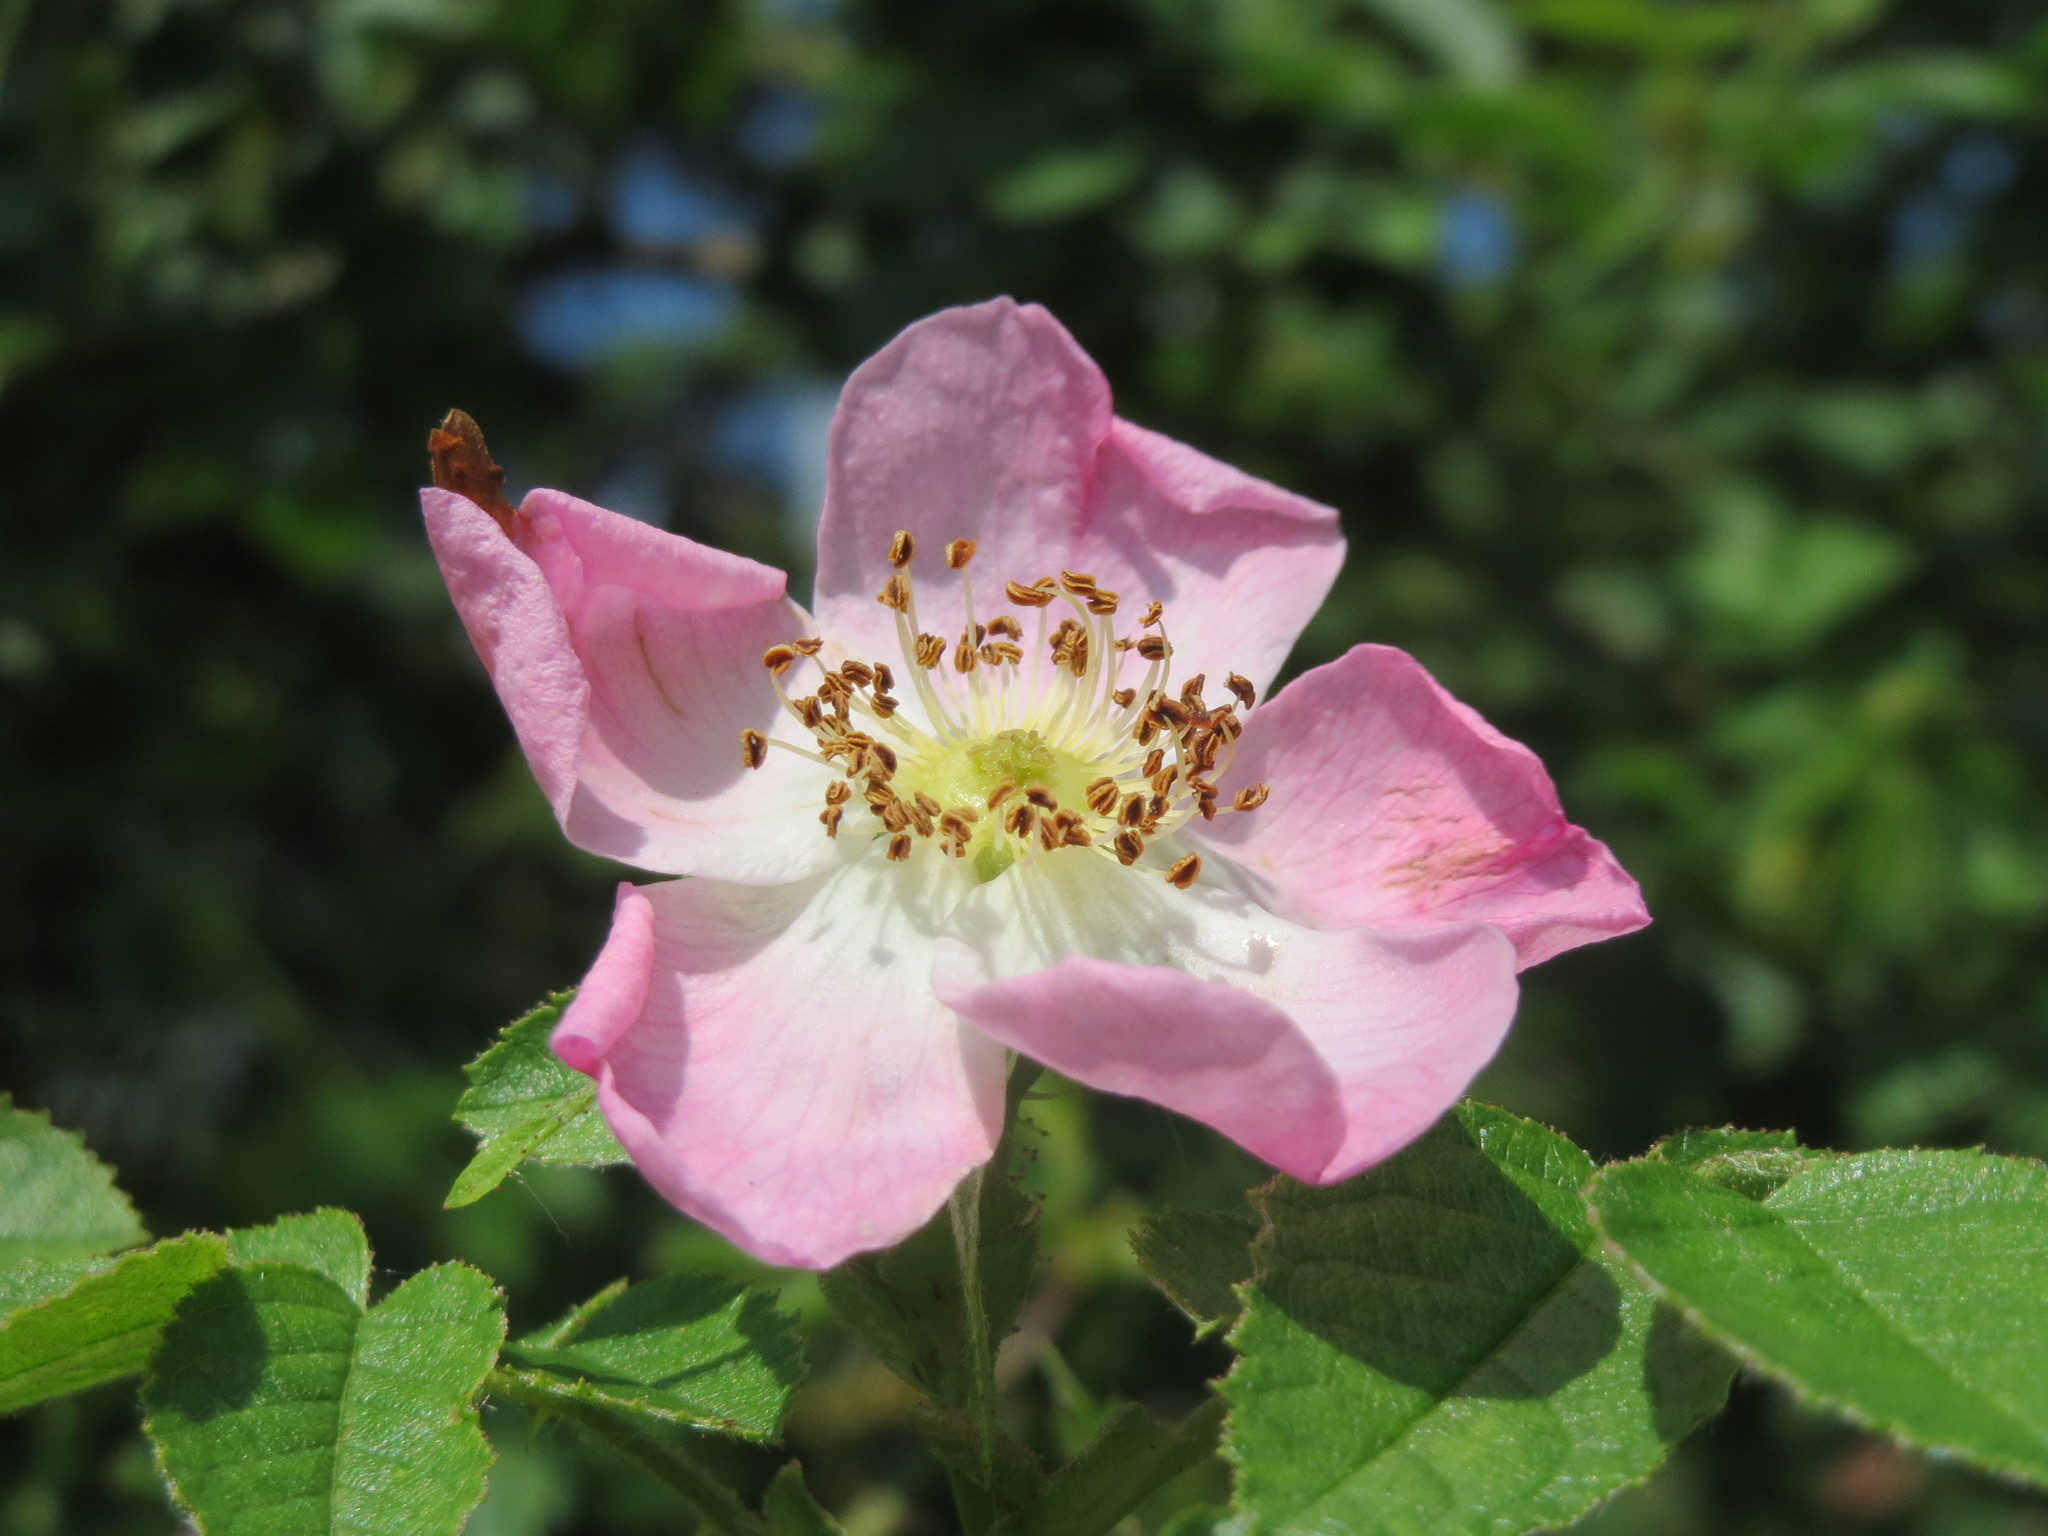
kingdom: Plantae
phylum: Tracheophyta
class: Magnoliopsida
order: Rosales
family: Rosaceae
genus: Rosa
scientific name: Rosa rubiginosa
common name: Sweet-briar
